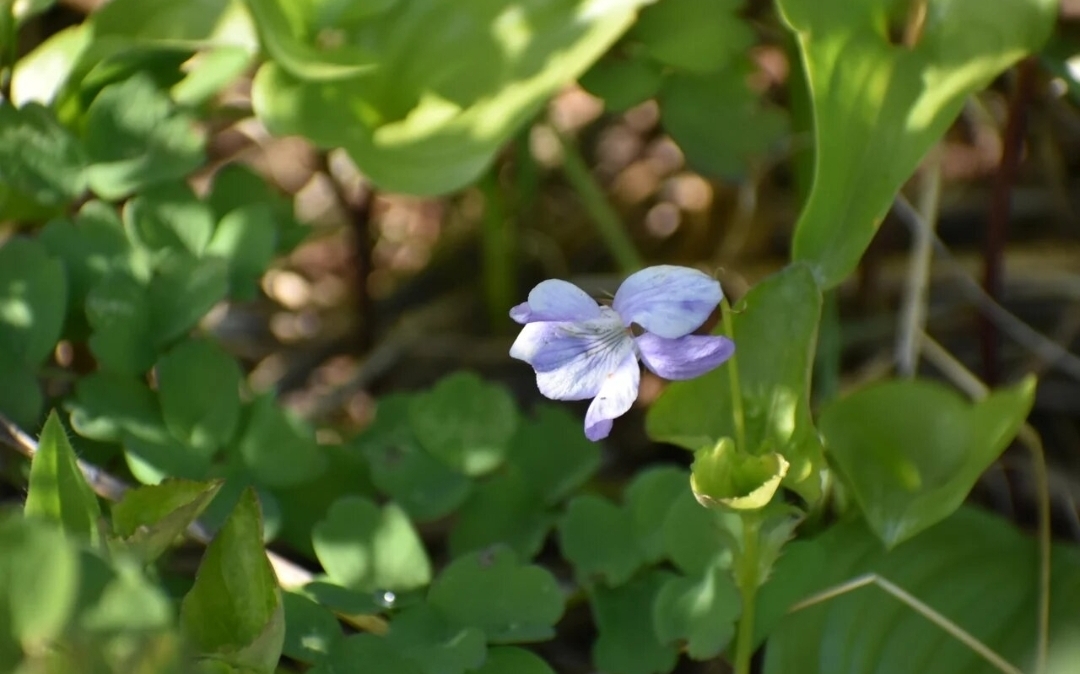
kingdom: Plantae
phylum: Tracheophyta
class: Magnoliopsida
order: Malpighiales
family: Violaceae
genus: Viola
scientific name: Viola sacchalinensis
